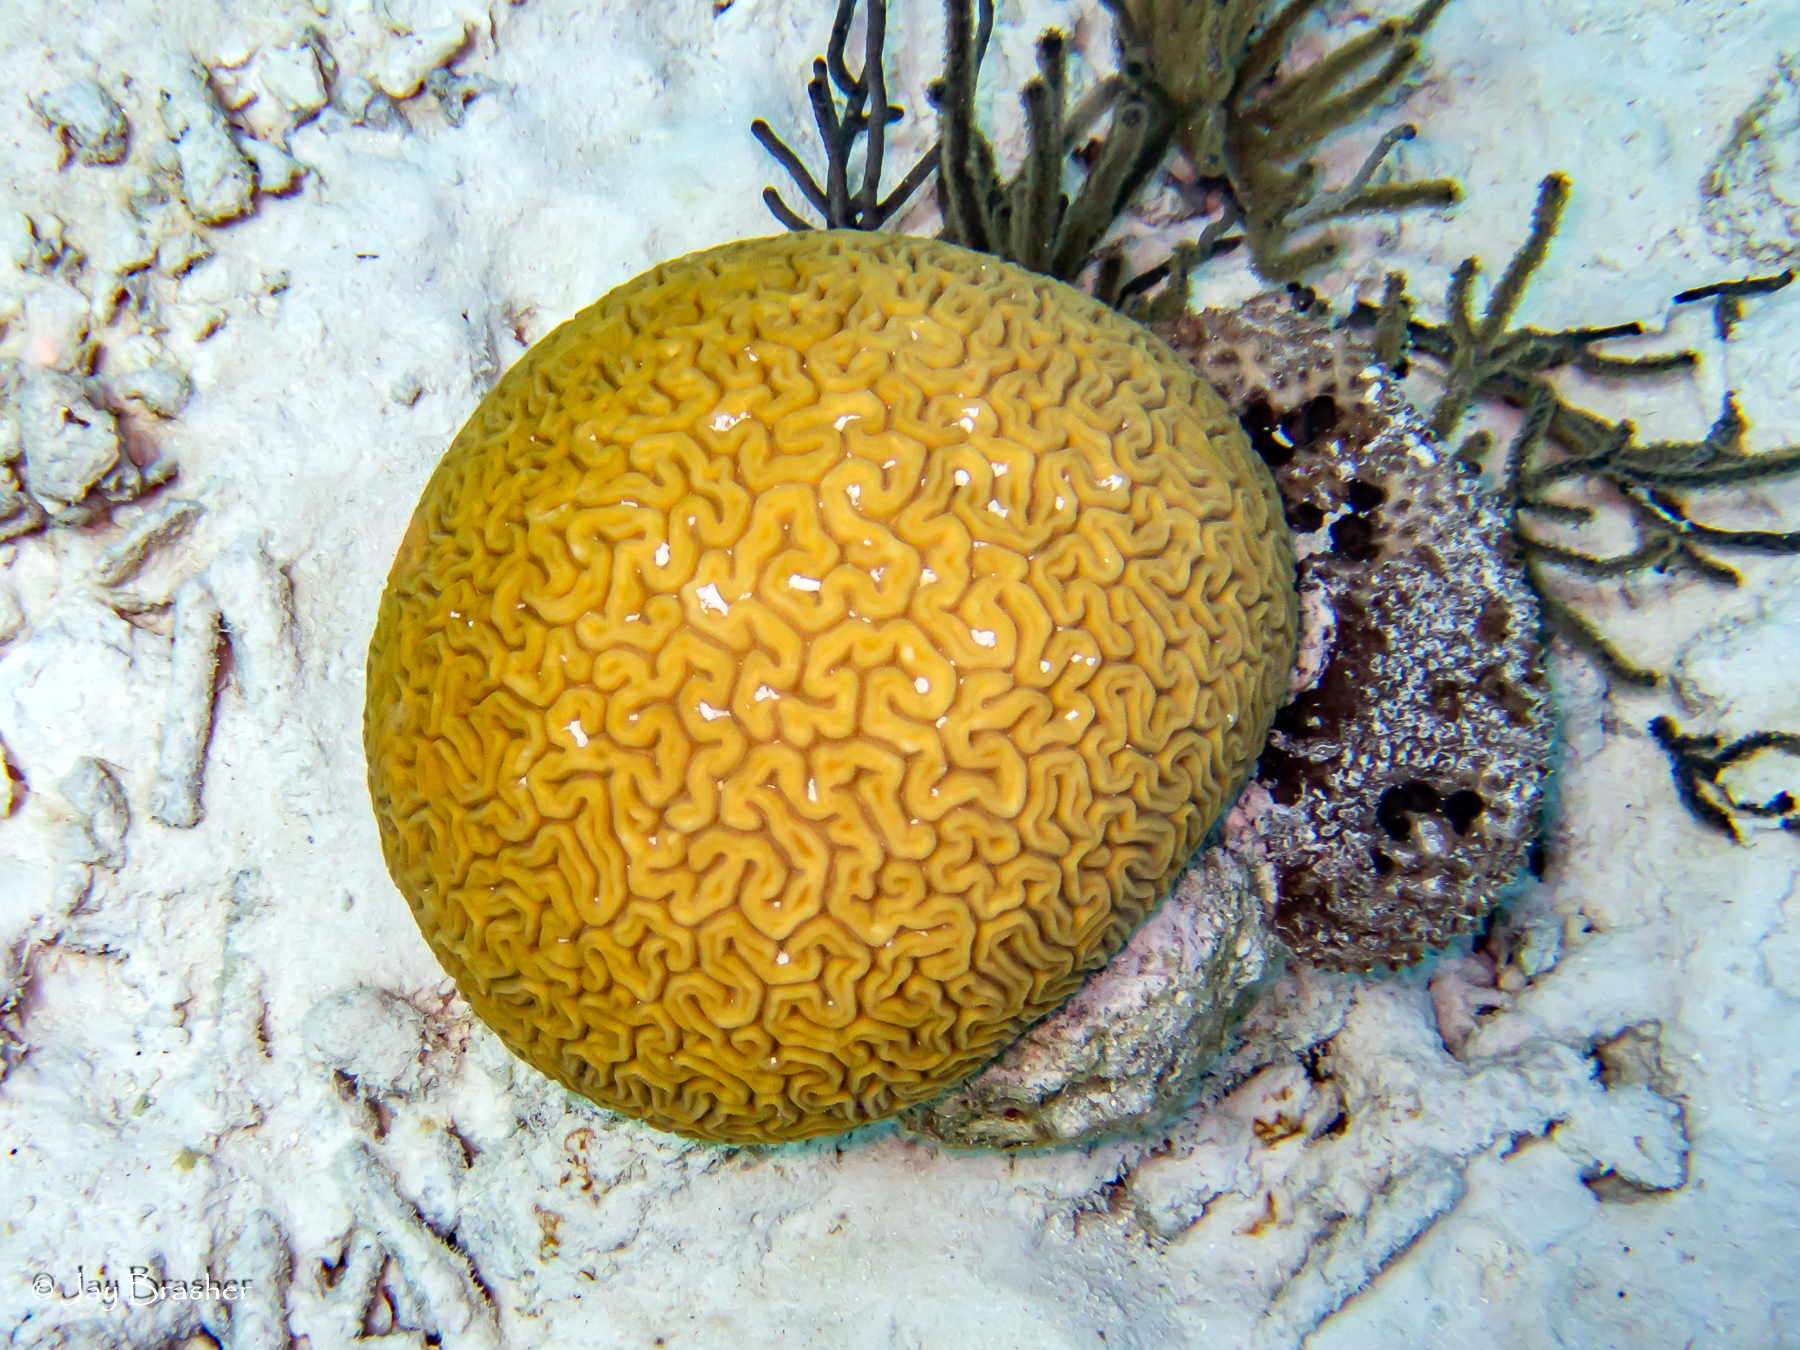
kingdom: Animalia
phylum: Porifera
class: Demospongiae
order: Dictyoceratida
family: Irciniidae
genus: Ircinia
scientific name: Ircinia felix
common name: Stinker sponge
